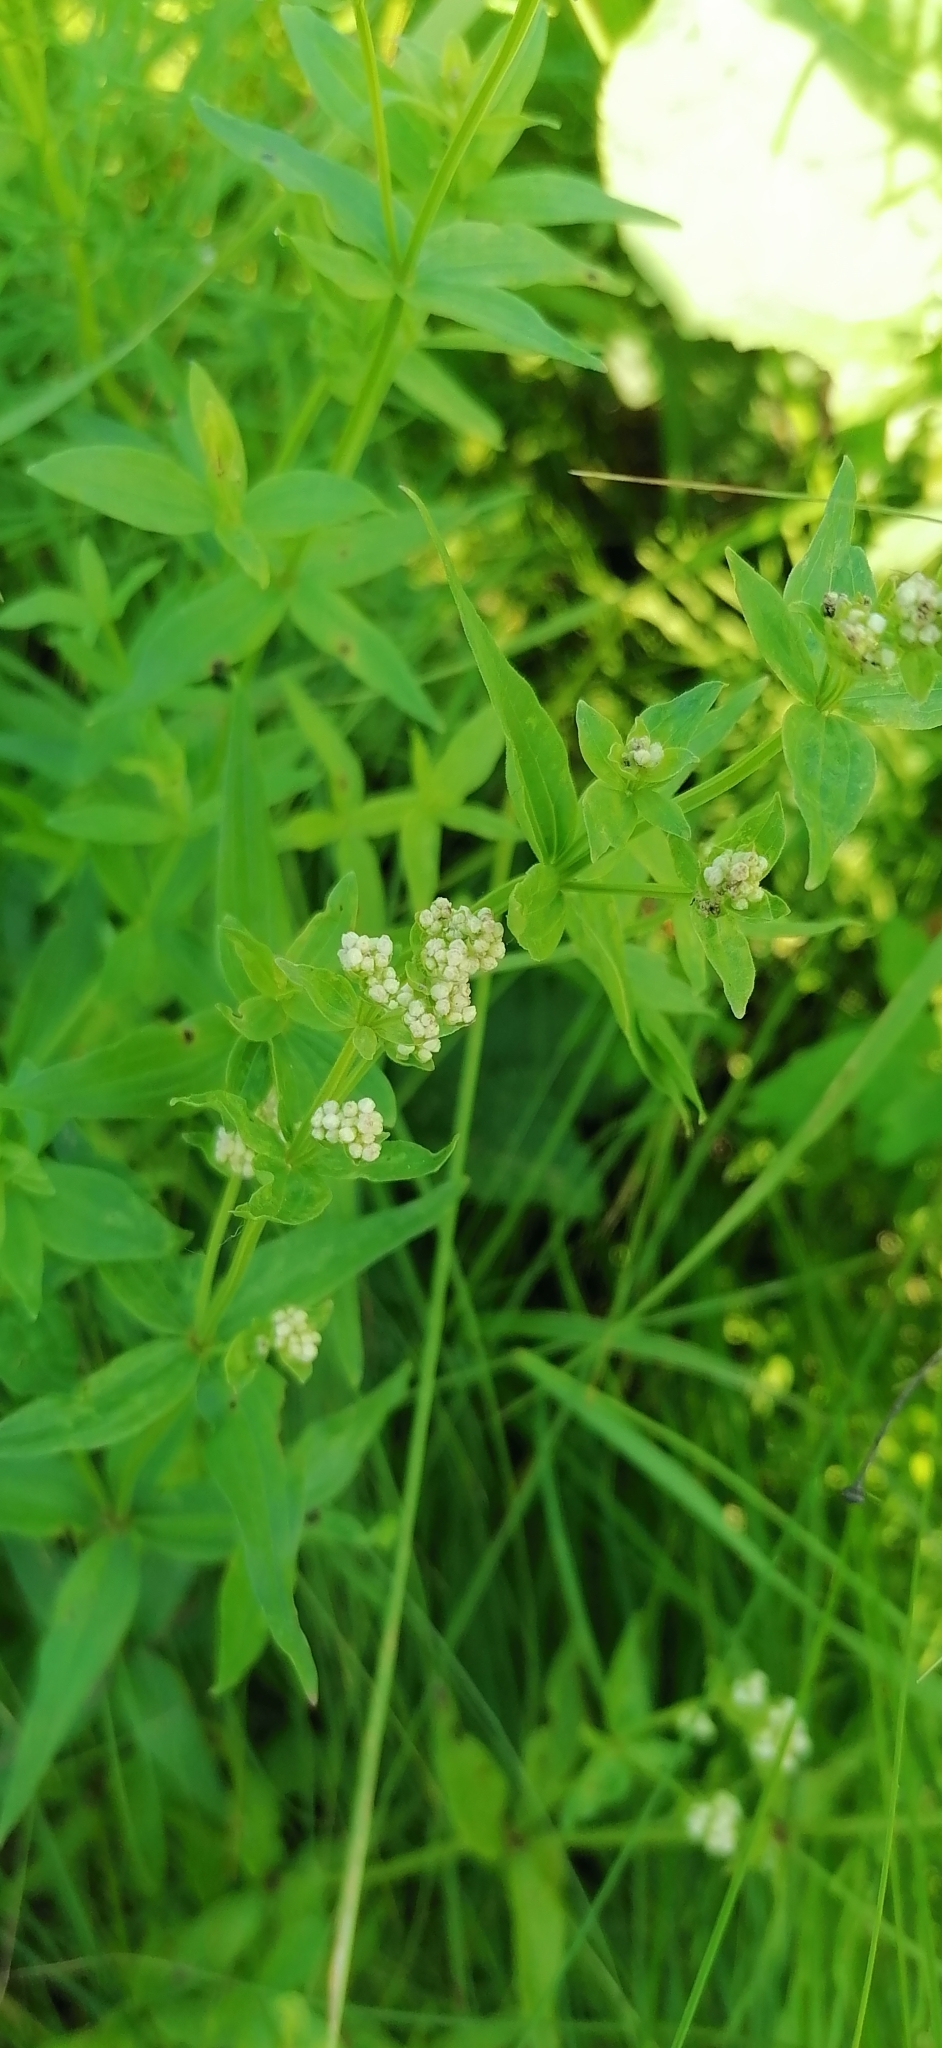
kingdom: Plantae
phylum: Tracheophyta
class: Magnoliopsida
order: Gentianales
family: Rubiaceae
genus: Galium
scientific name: Galium boreale
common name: Northern bedstraw
